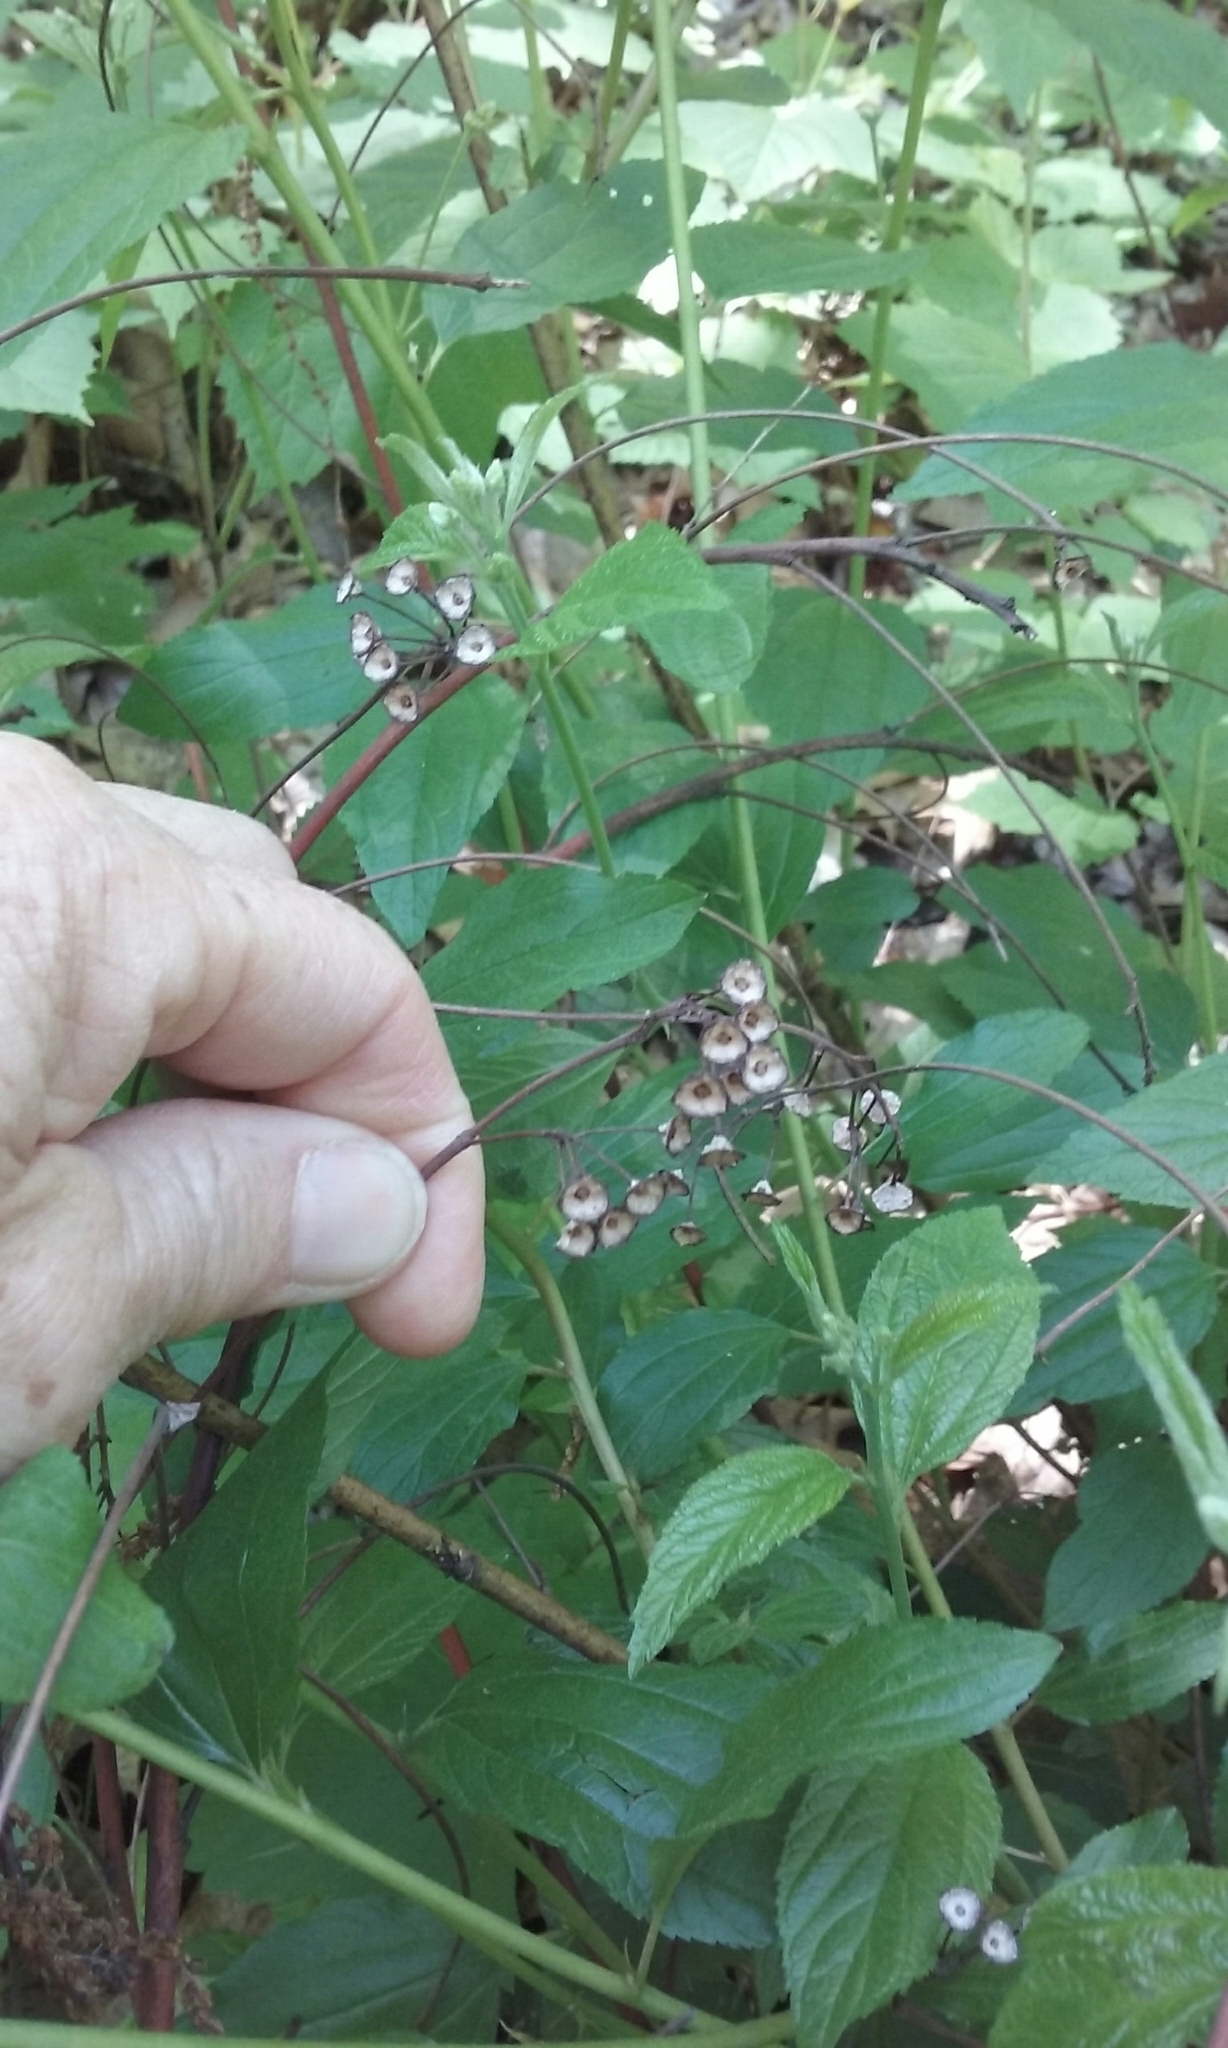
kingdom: Plantae
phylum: Tracheophyta
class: Magnoliopsida
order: Rosales
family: Rhamnaceae
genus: Ceanothus
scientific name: Ceanothus americanus
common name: Redroot
